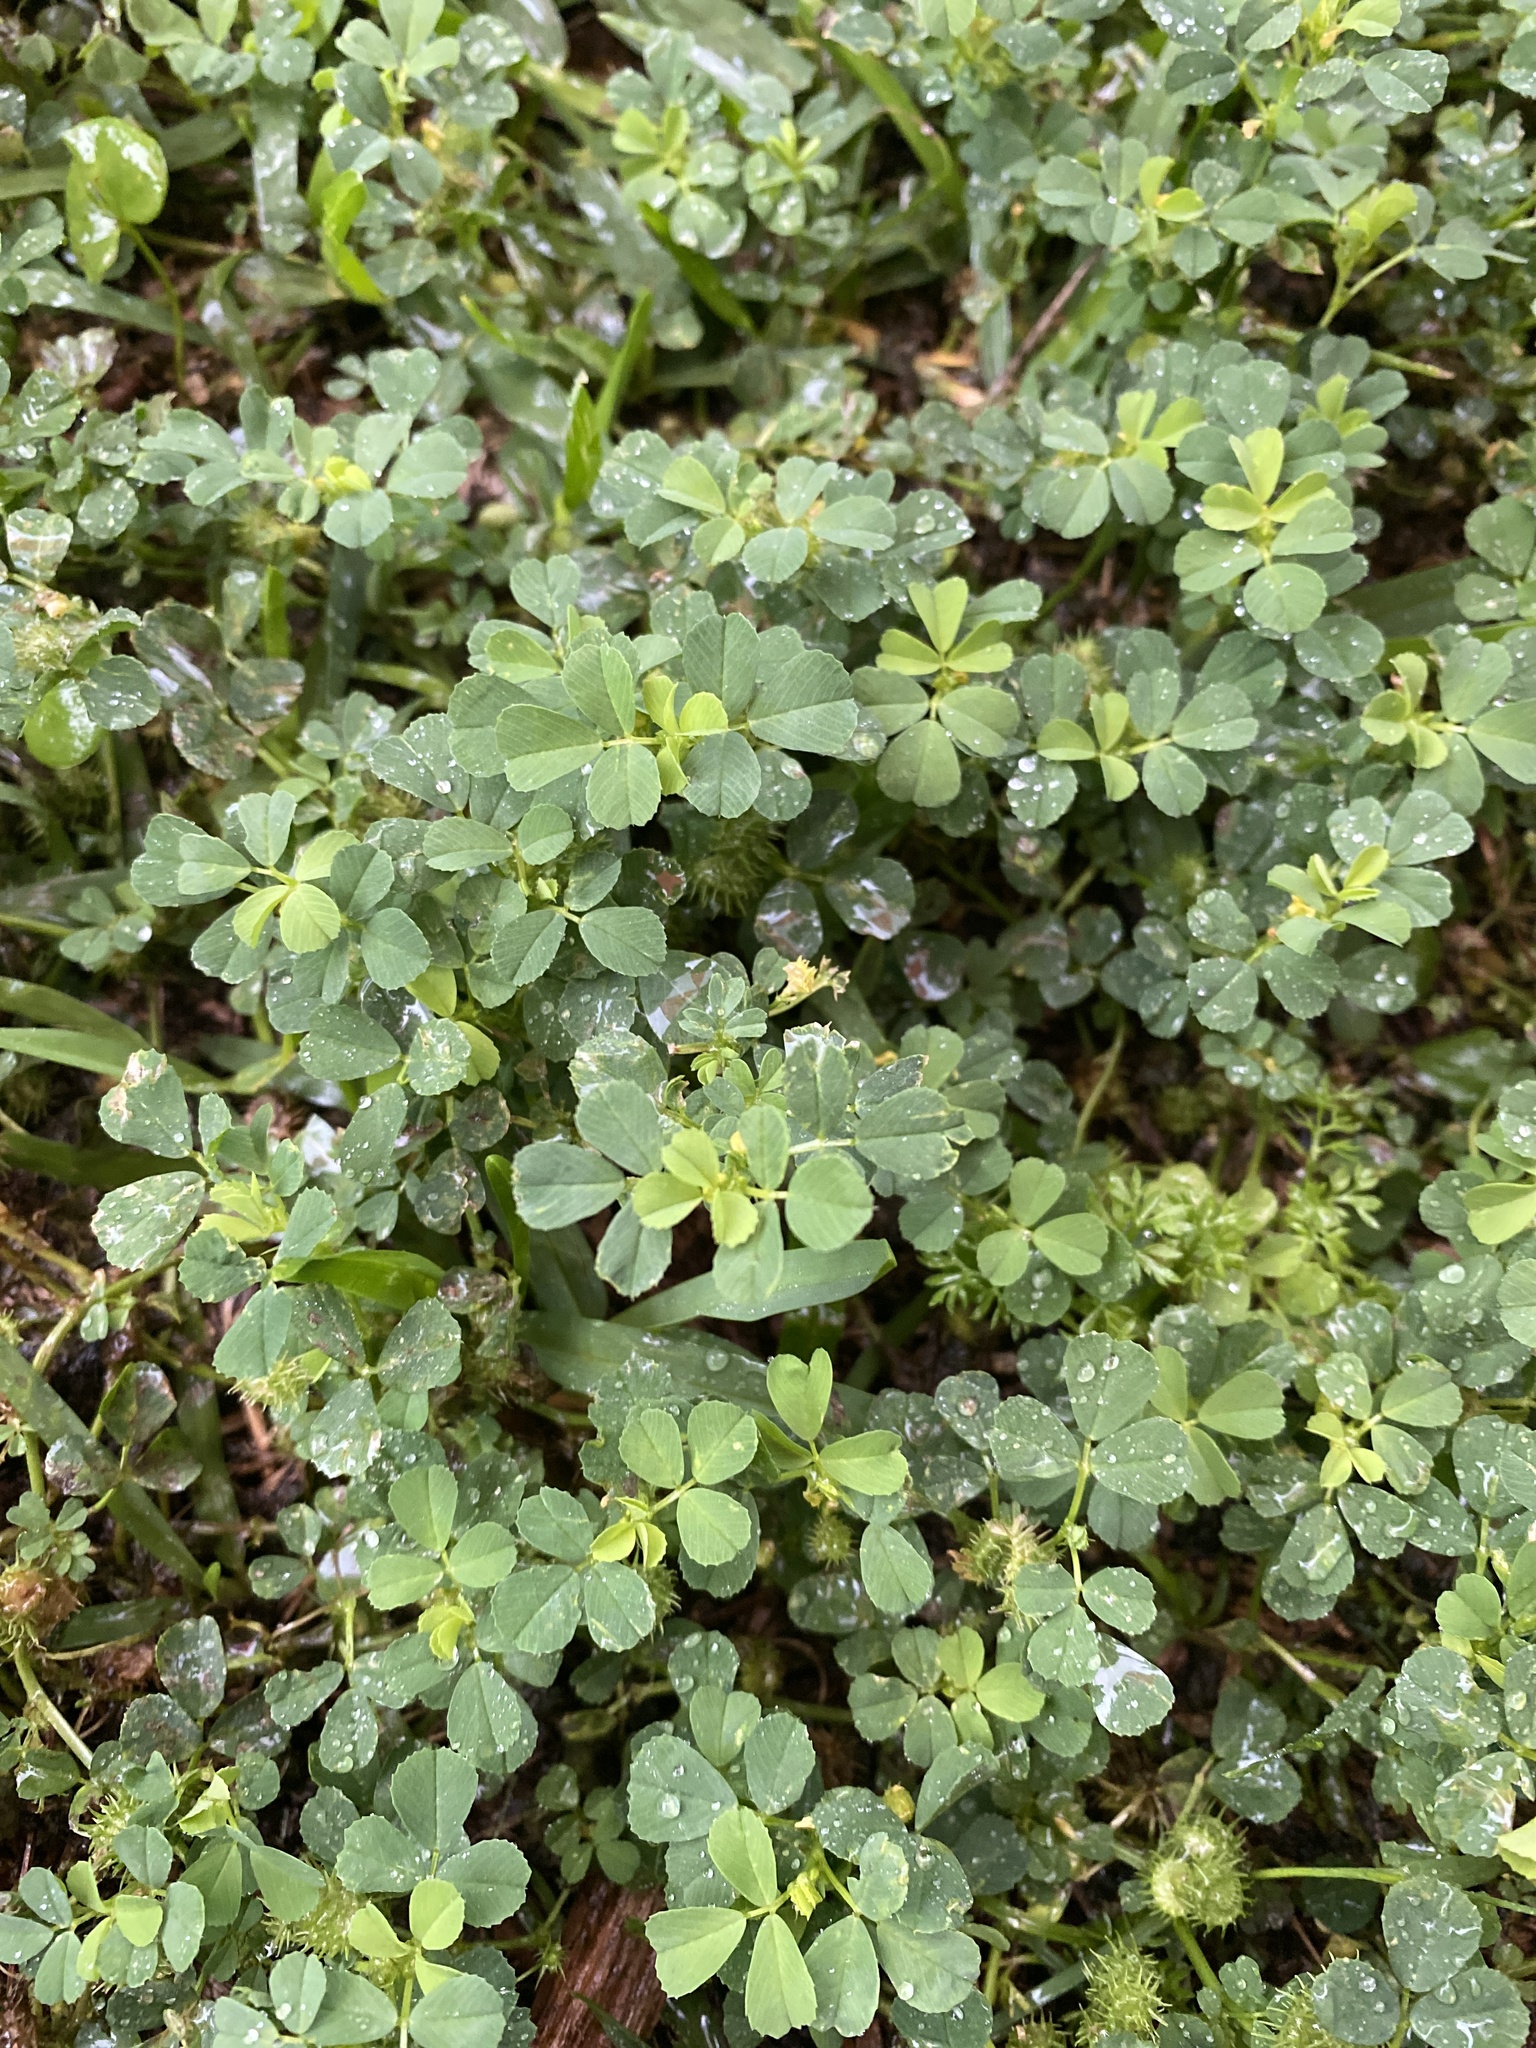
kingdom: Plantae
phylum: Tracheophyta
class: Magnoliopsida
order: Fabales
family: Fabaceae
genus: Medicago
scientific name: Medicago polymorpha
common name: Burclover
